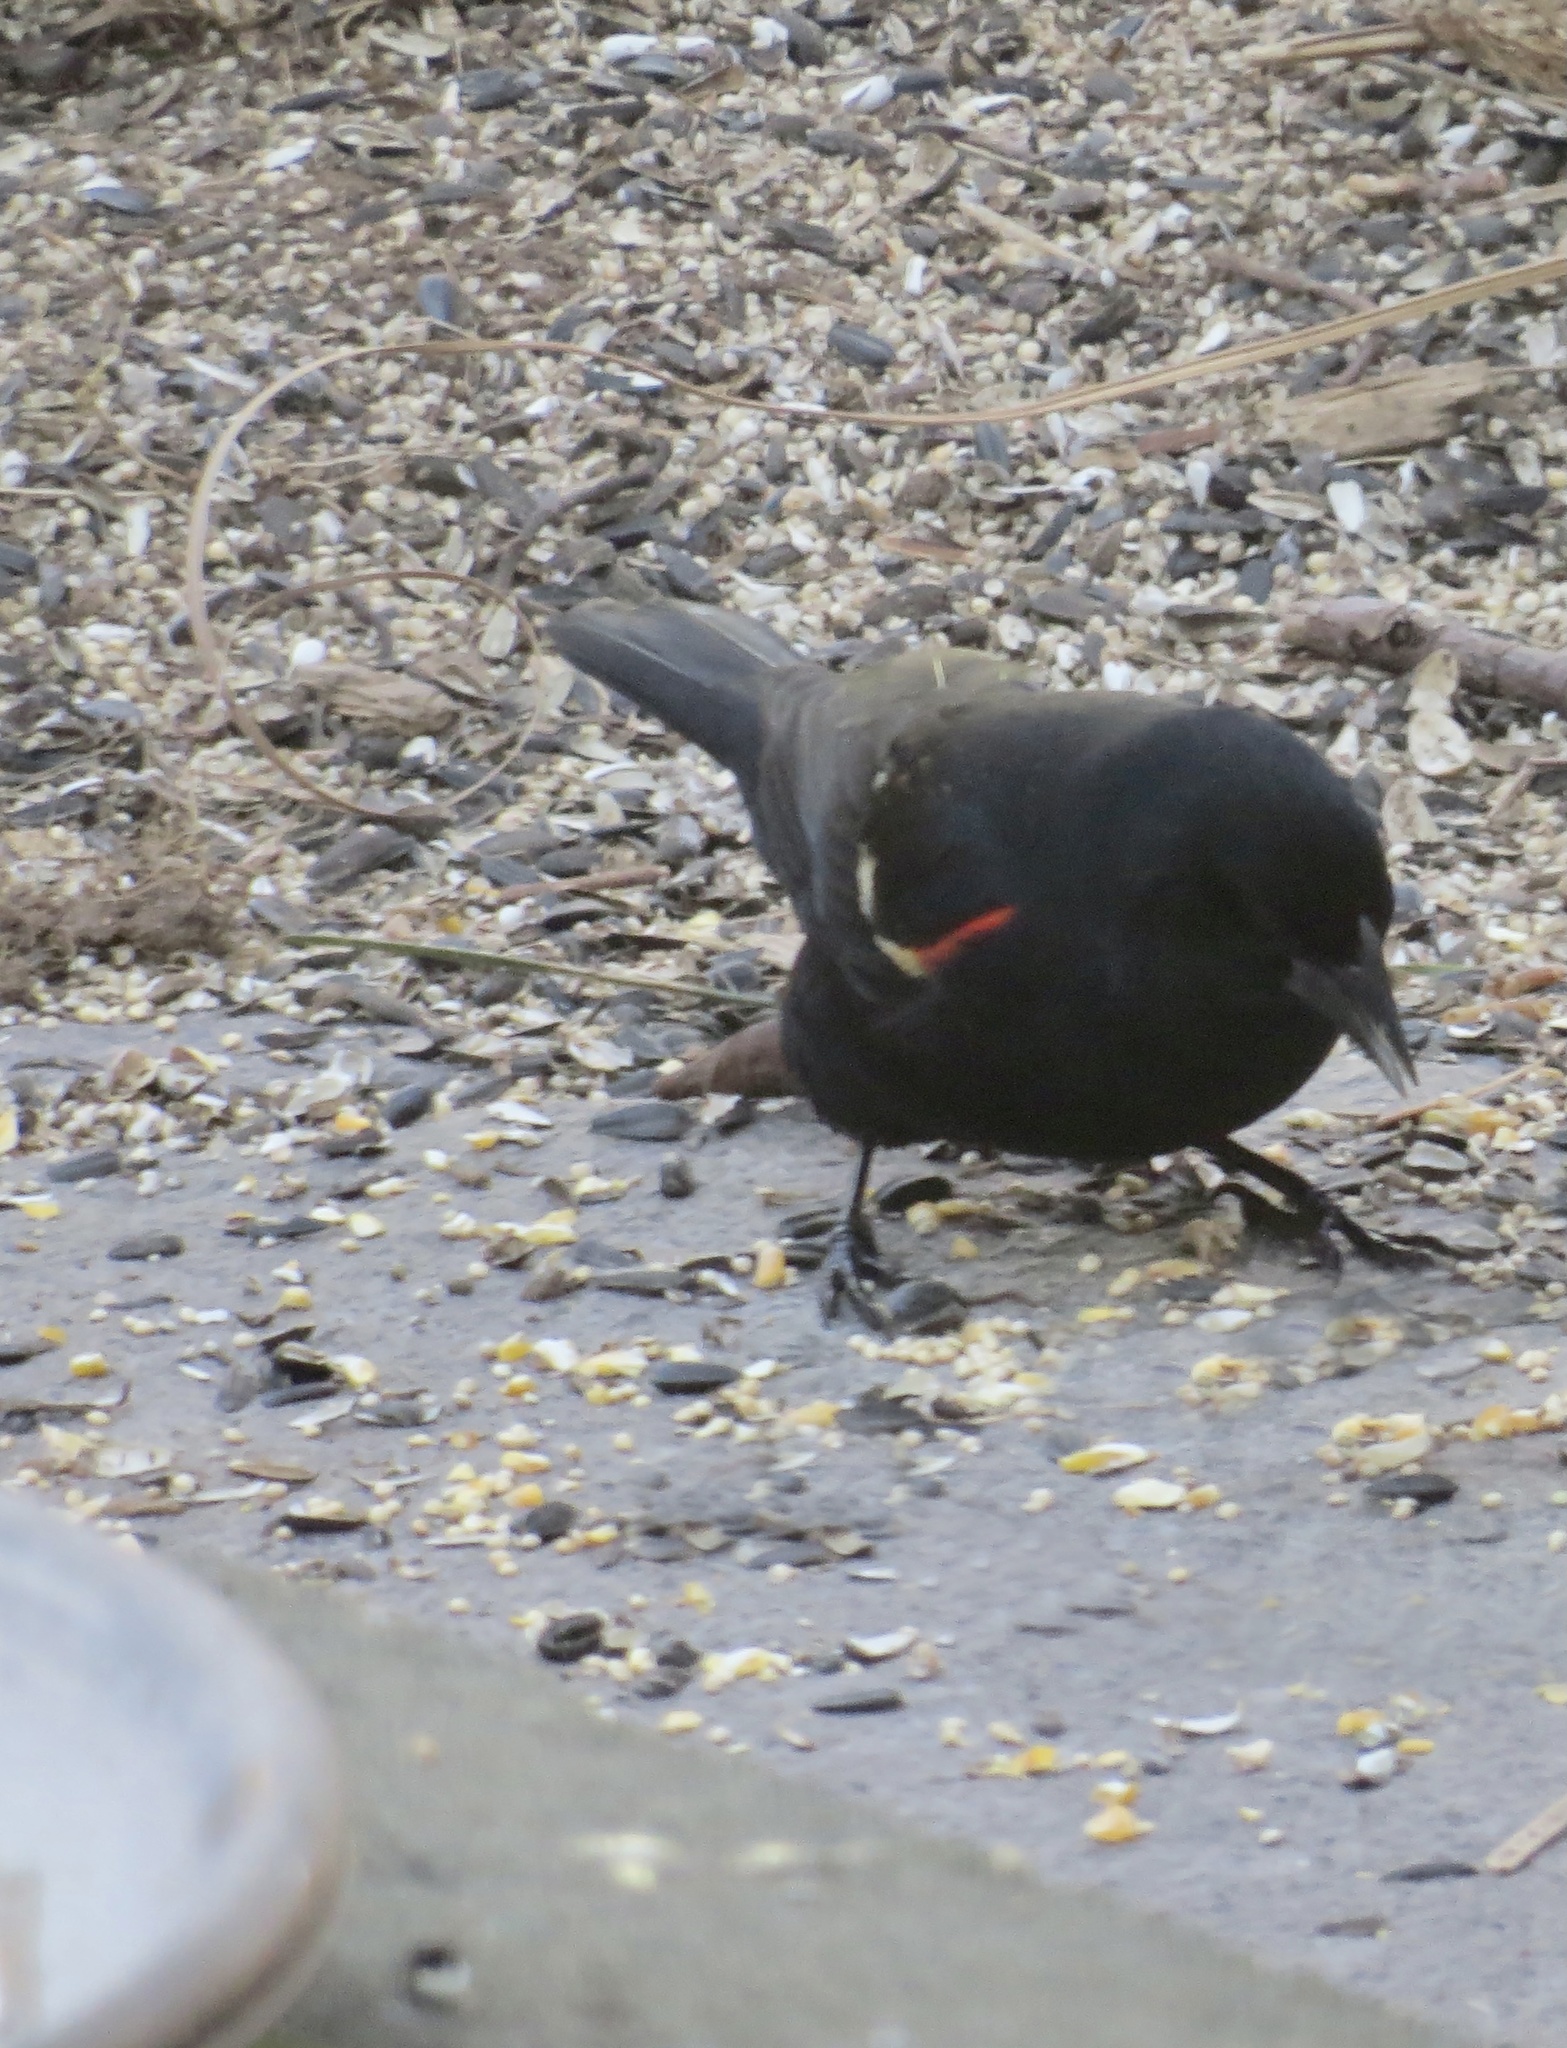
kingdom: Animalia
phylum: Chordata
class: Aves
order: Passeriformes
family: Icteridae
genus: Agelaius
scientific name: Agelaius phoeniceus
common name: Red-winged blackbird
